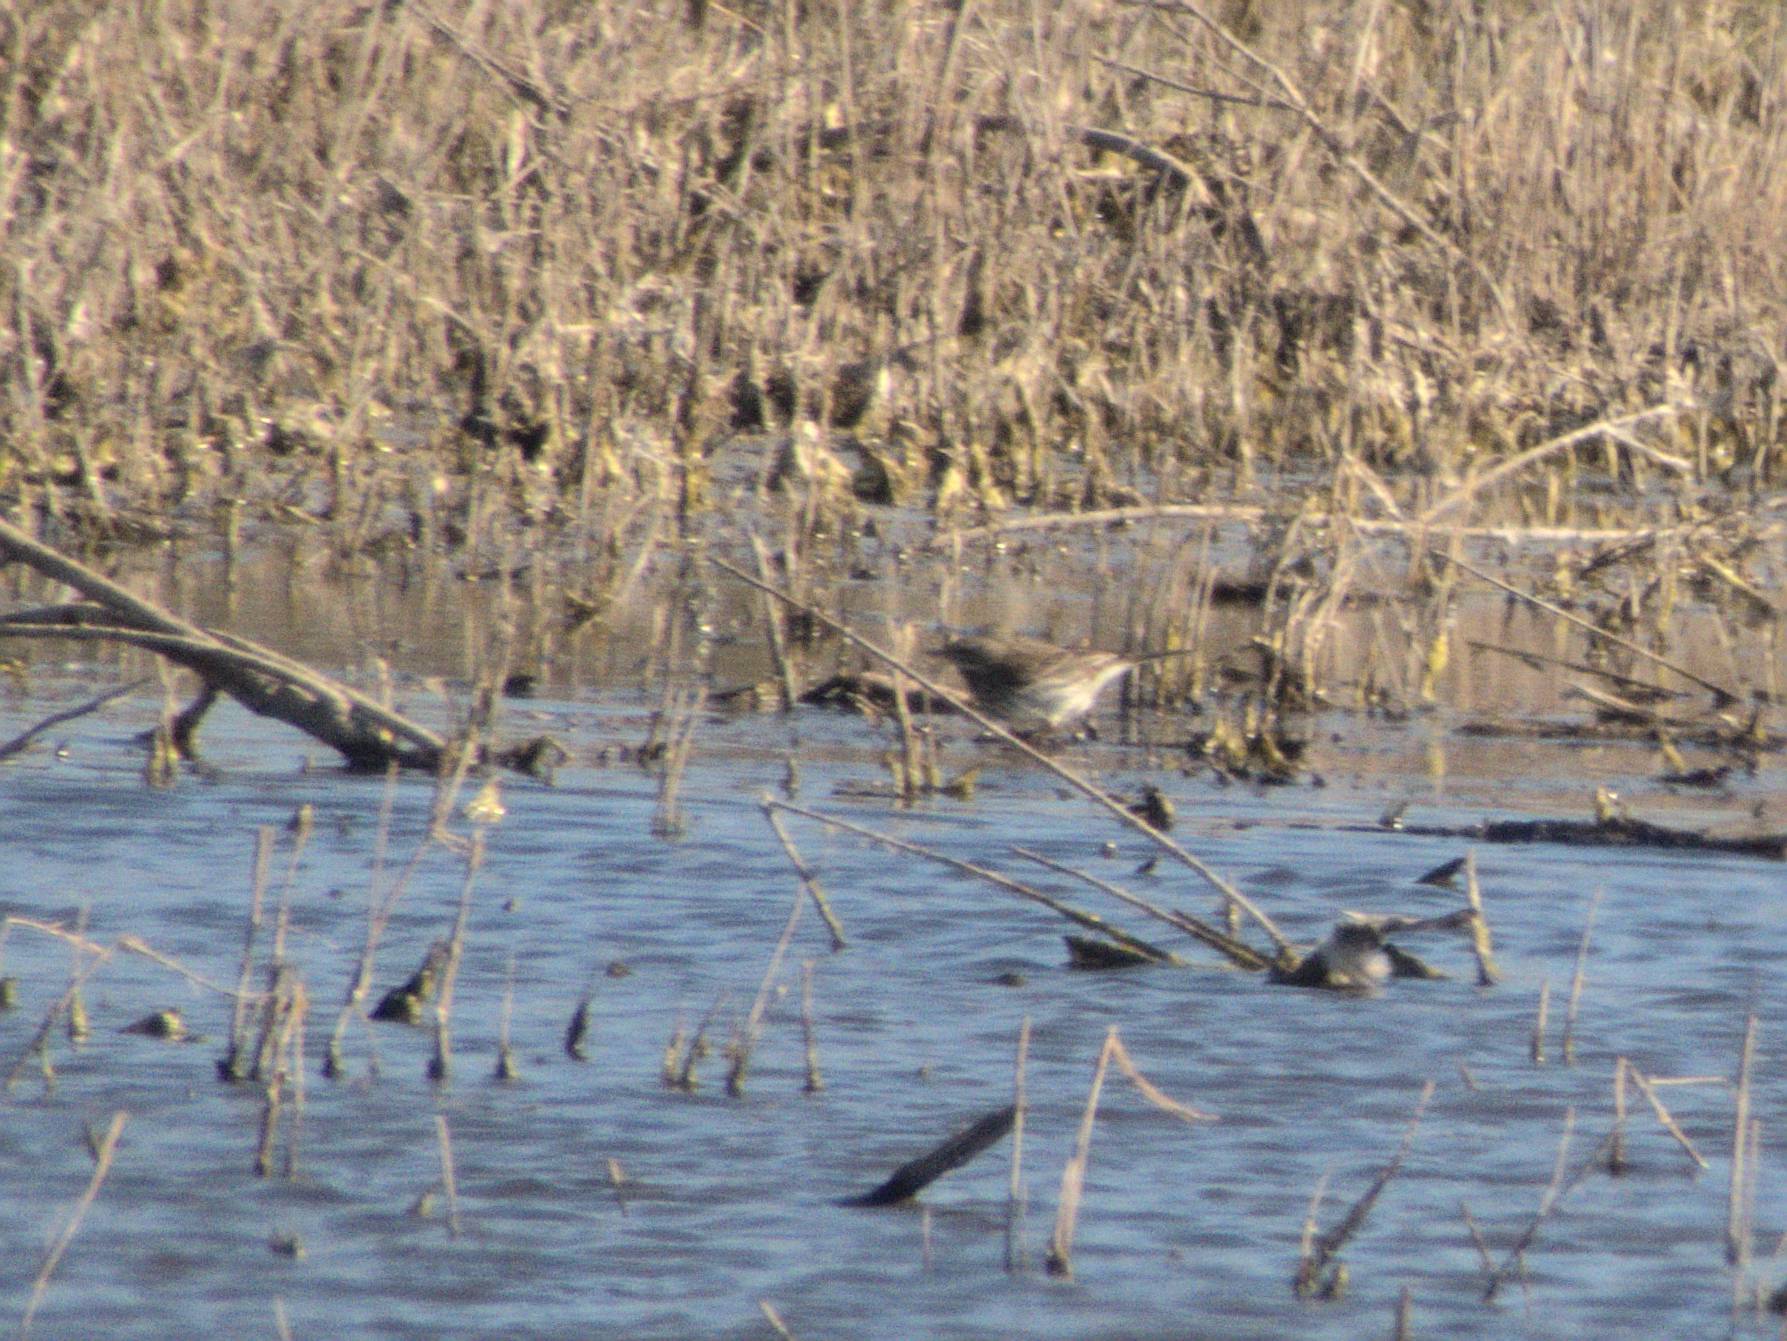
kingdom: Animalia
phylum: Chordata
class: Aves
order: Passeriformes
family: Motacillidae
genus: Anthus
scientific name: Anthus spinoletta
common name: Water pipit
